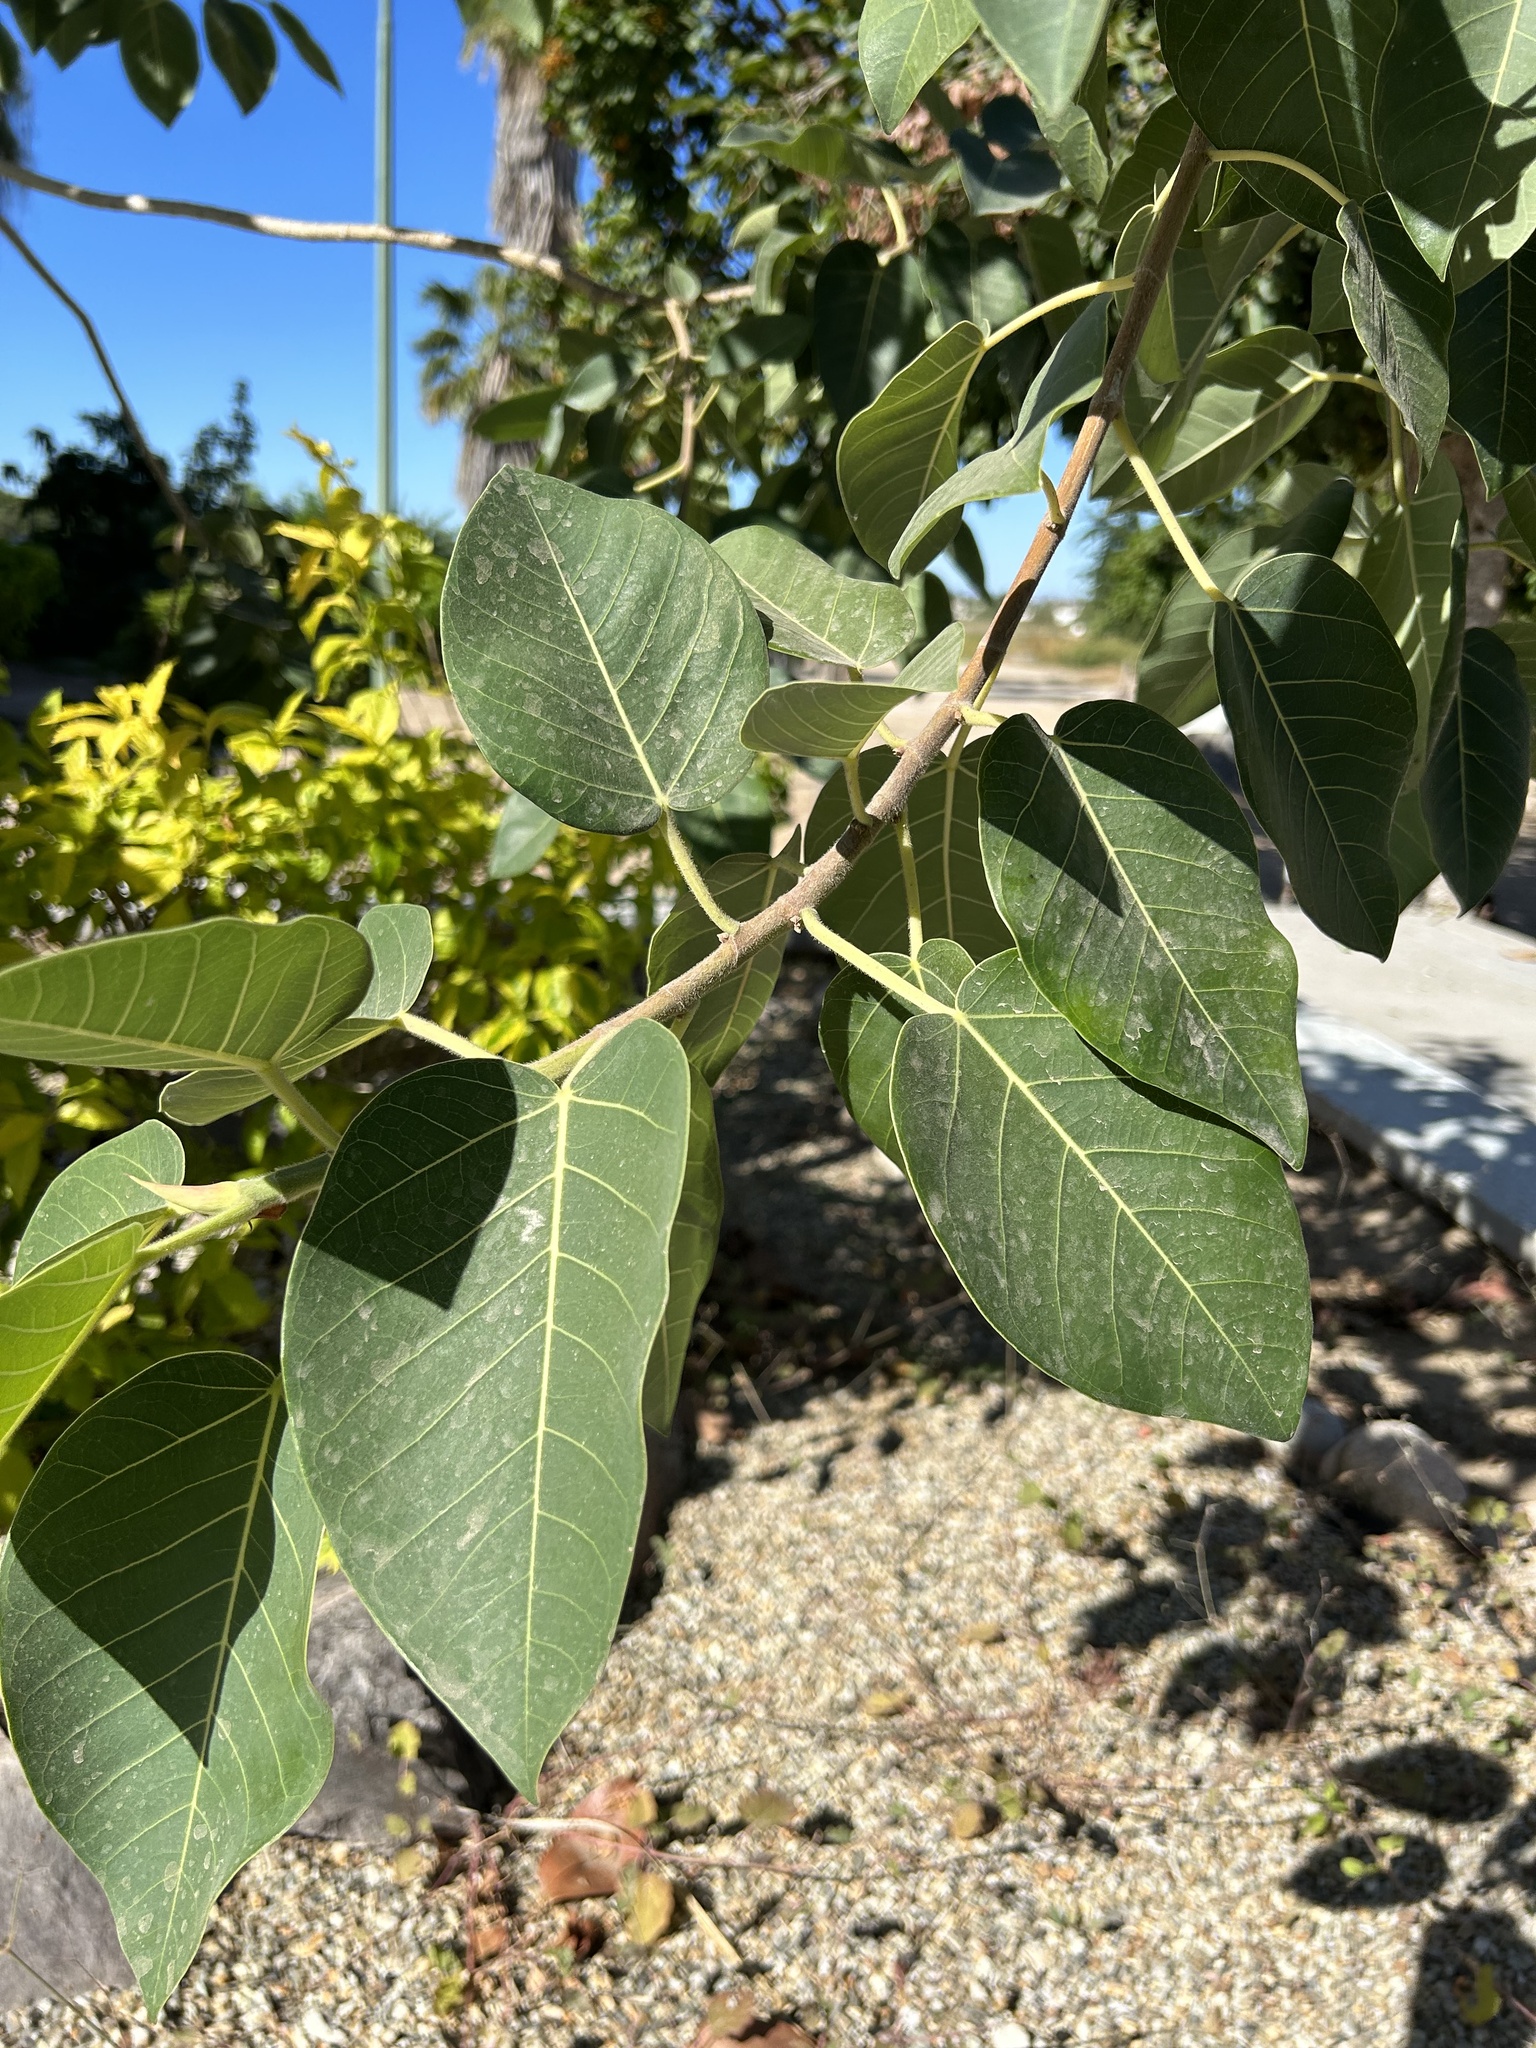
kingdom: Plantae
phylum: Tracheophyta
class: Magnoliopsida
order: Rosales
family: Moraceae
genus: Ficus
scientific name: Ficus petiolaris
